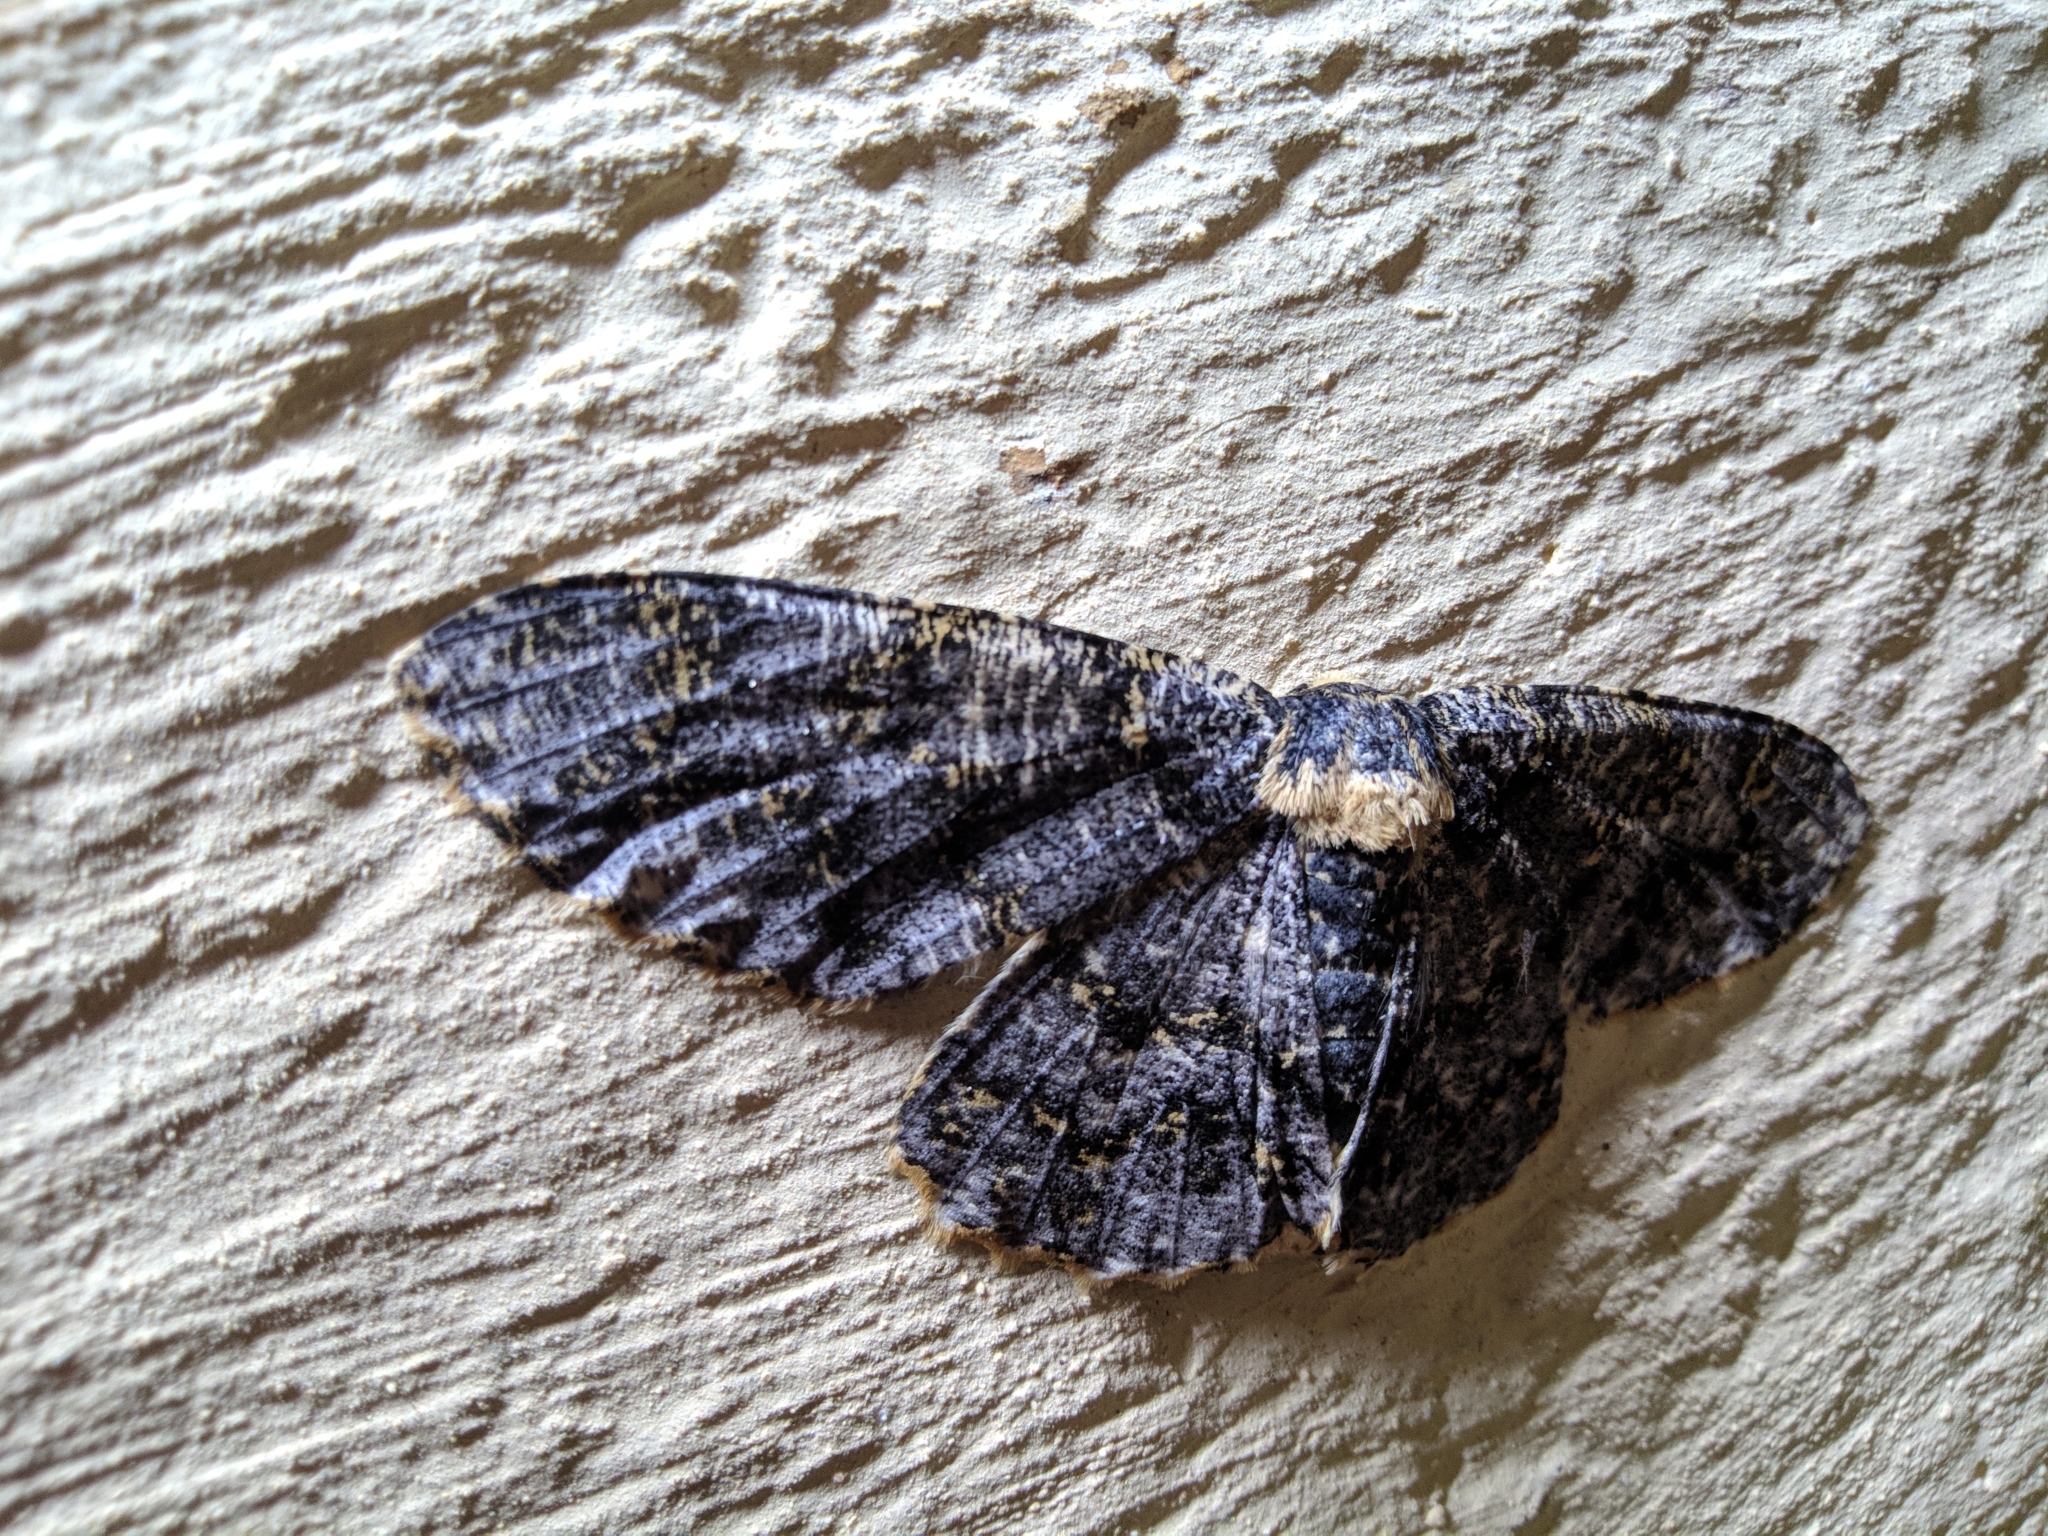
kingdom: Animalia
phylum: Arthropoda
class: Insecta
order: Lepidoptera
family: Geometridae
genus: Biston
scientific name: Biston suppressaria
